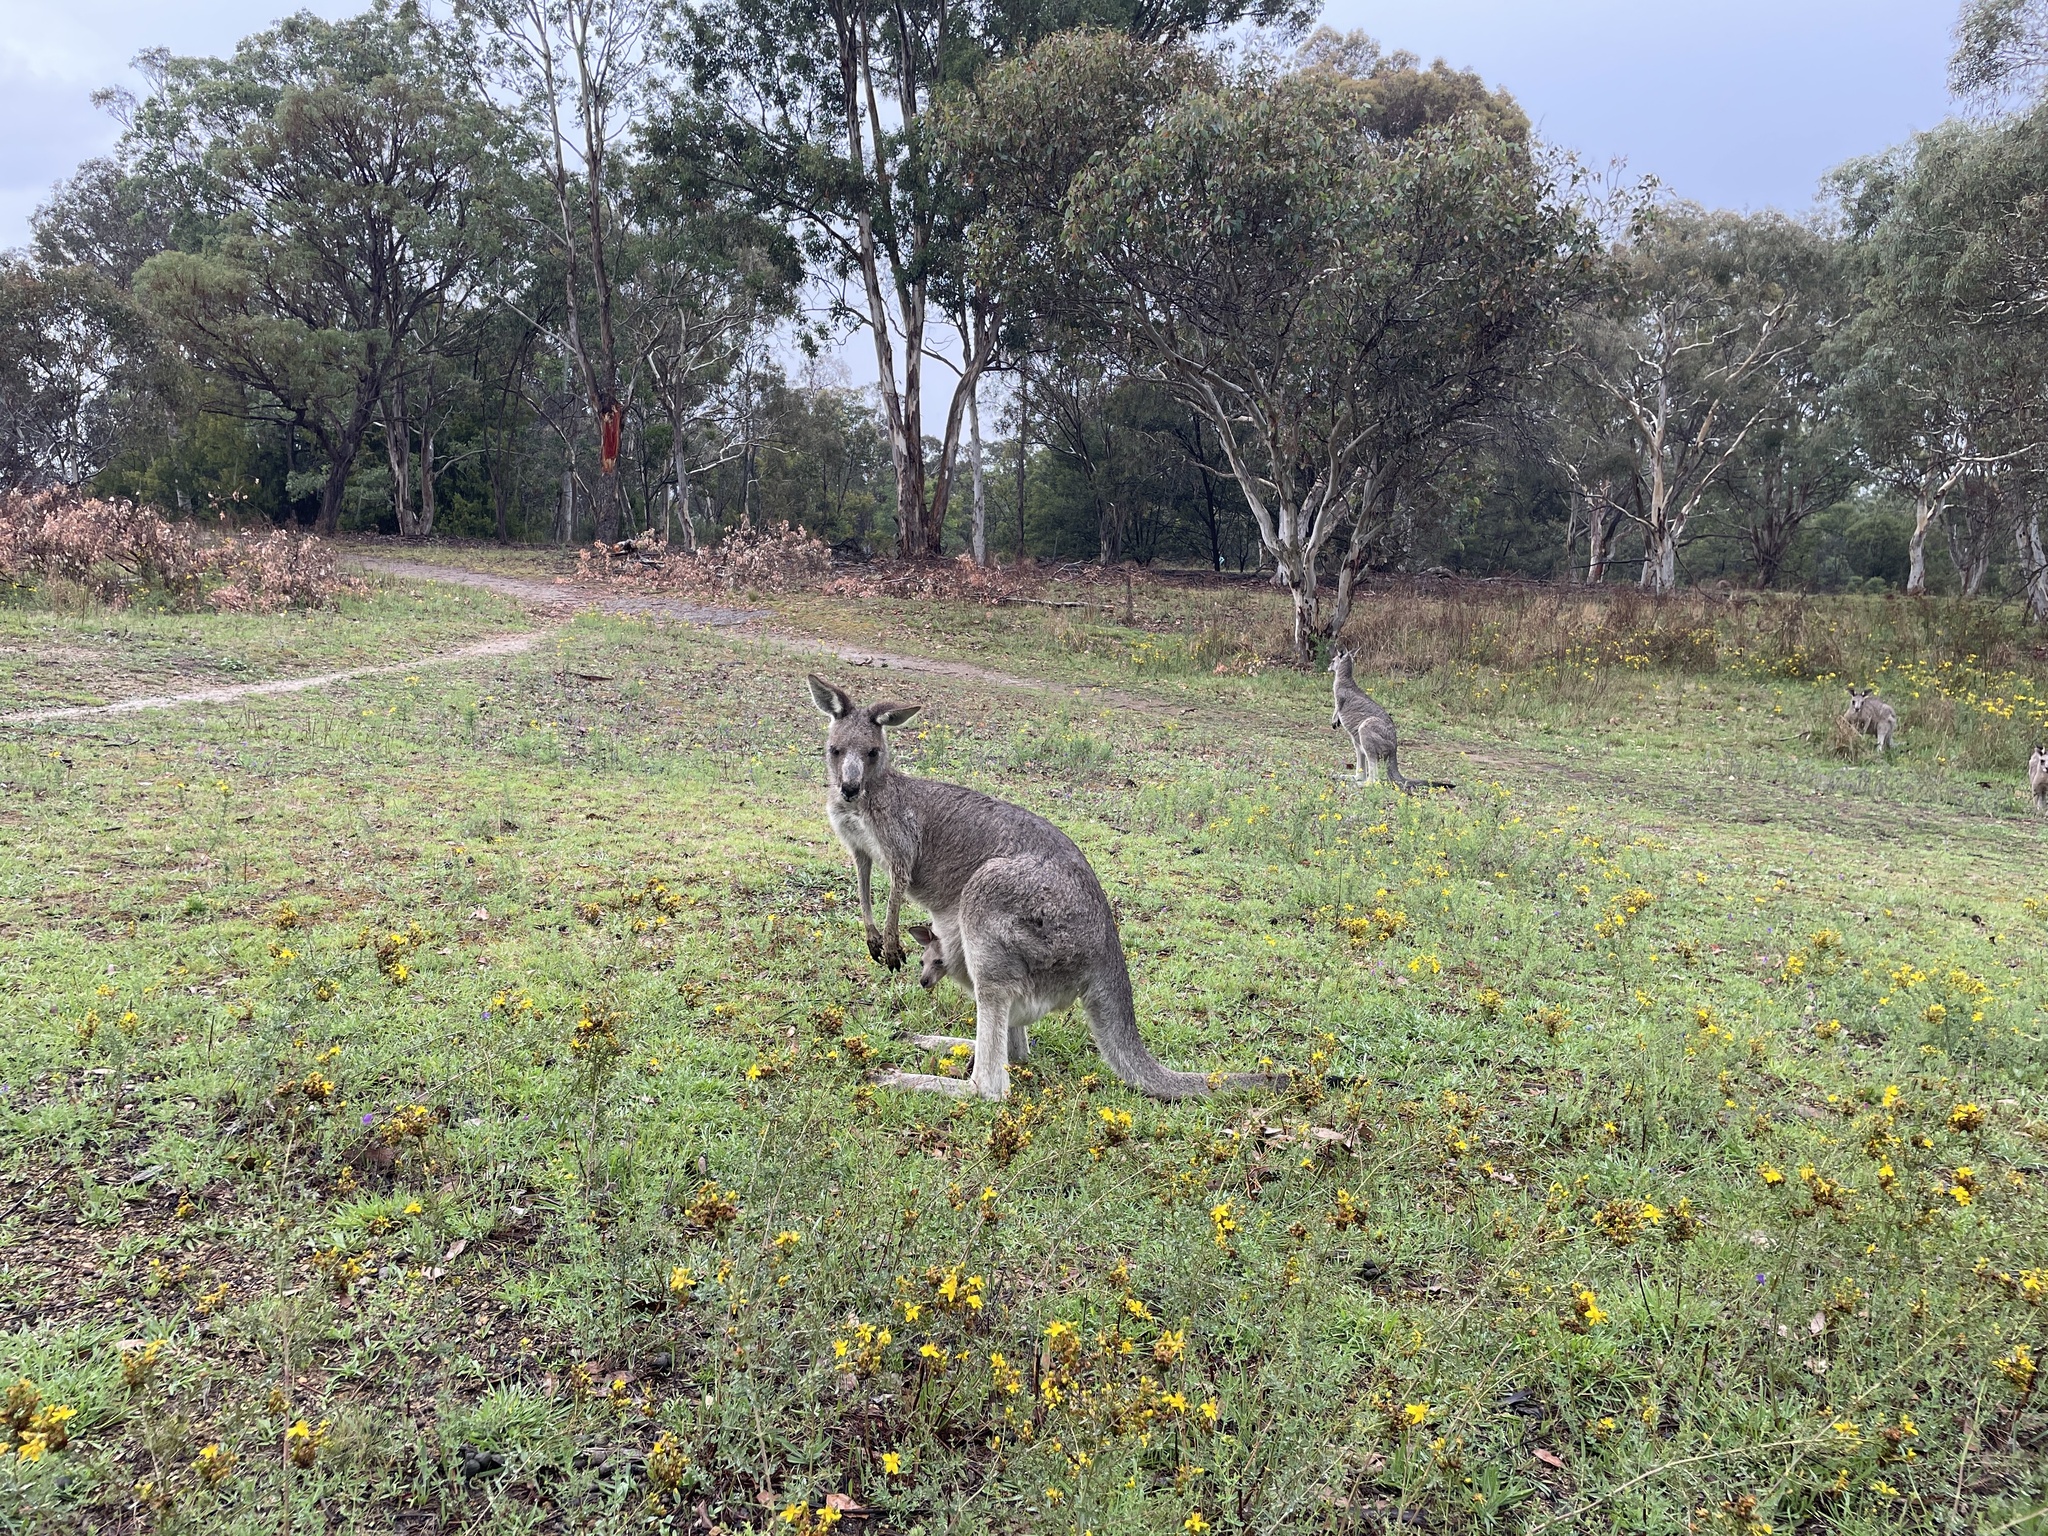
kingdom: Animalia
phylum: Chordata
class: Mammalia
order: Diprotodontia
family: Macropodidae
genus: Macropus
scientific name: Macropus giganteus
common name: Eastern grey kangaroo
